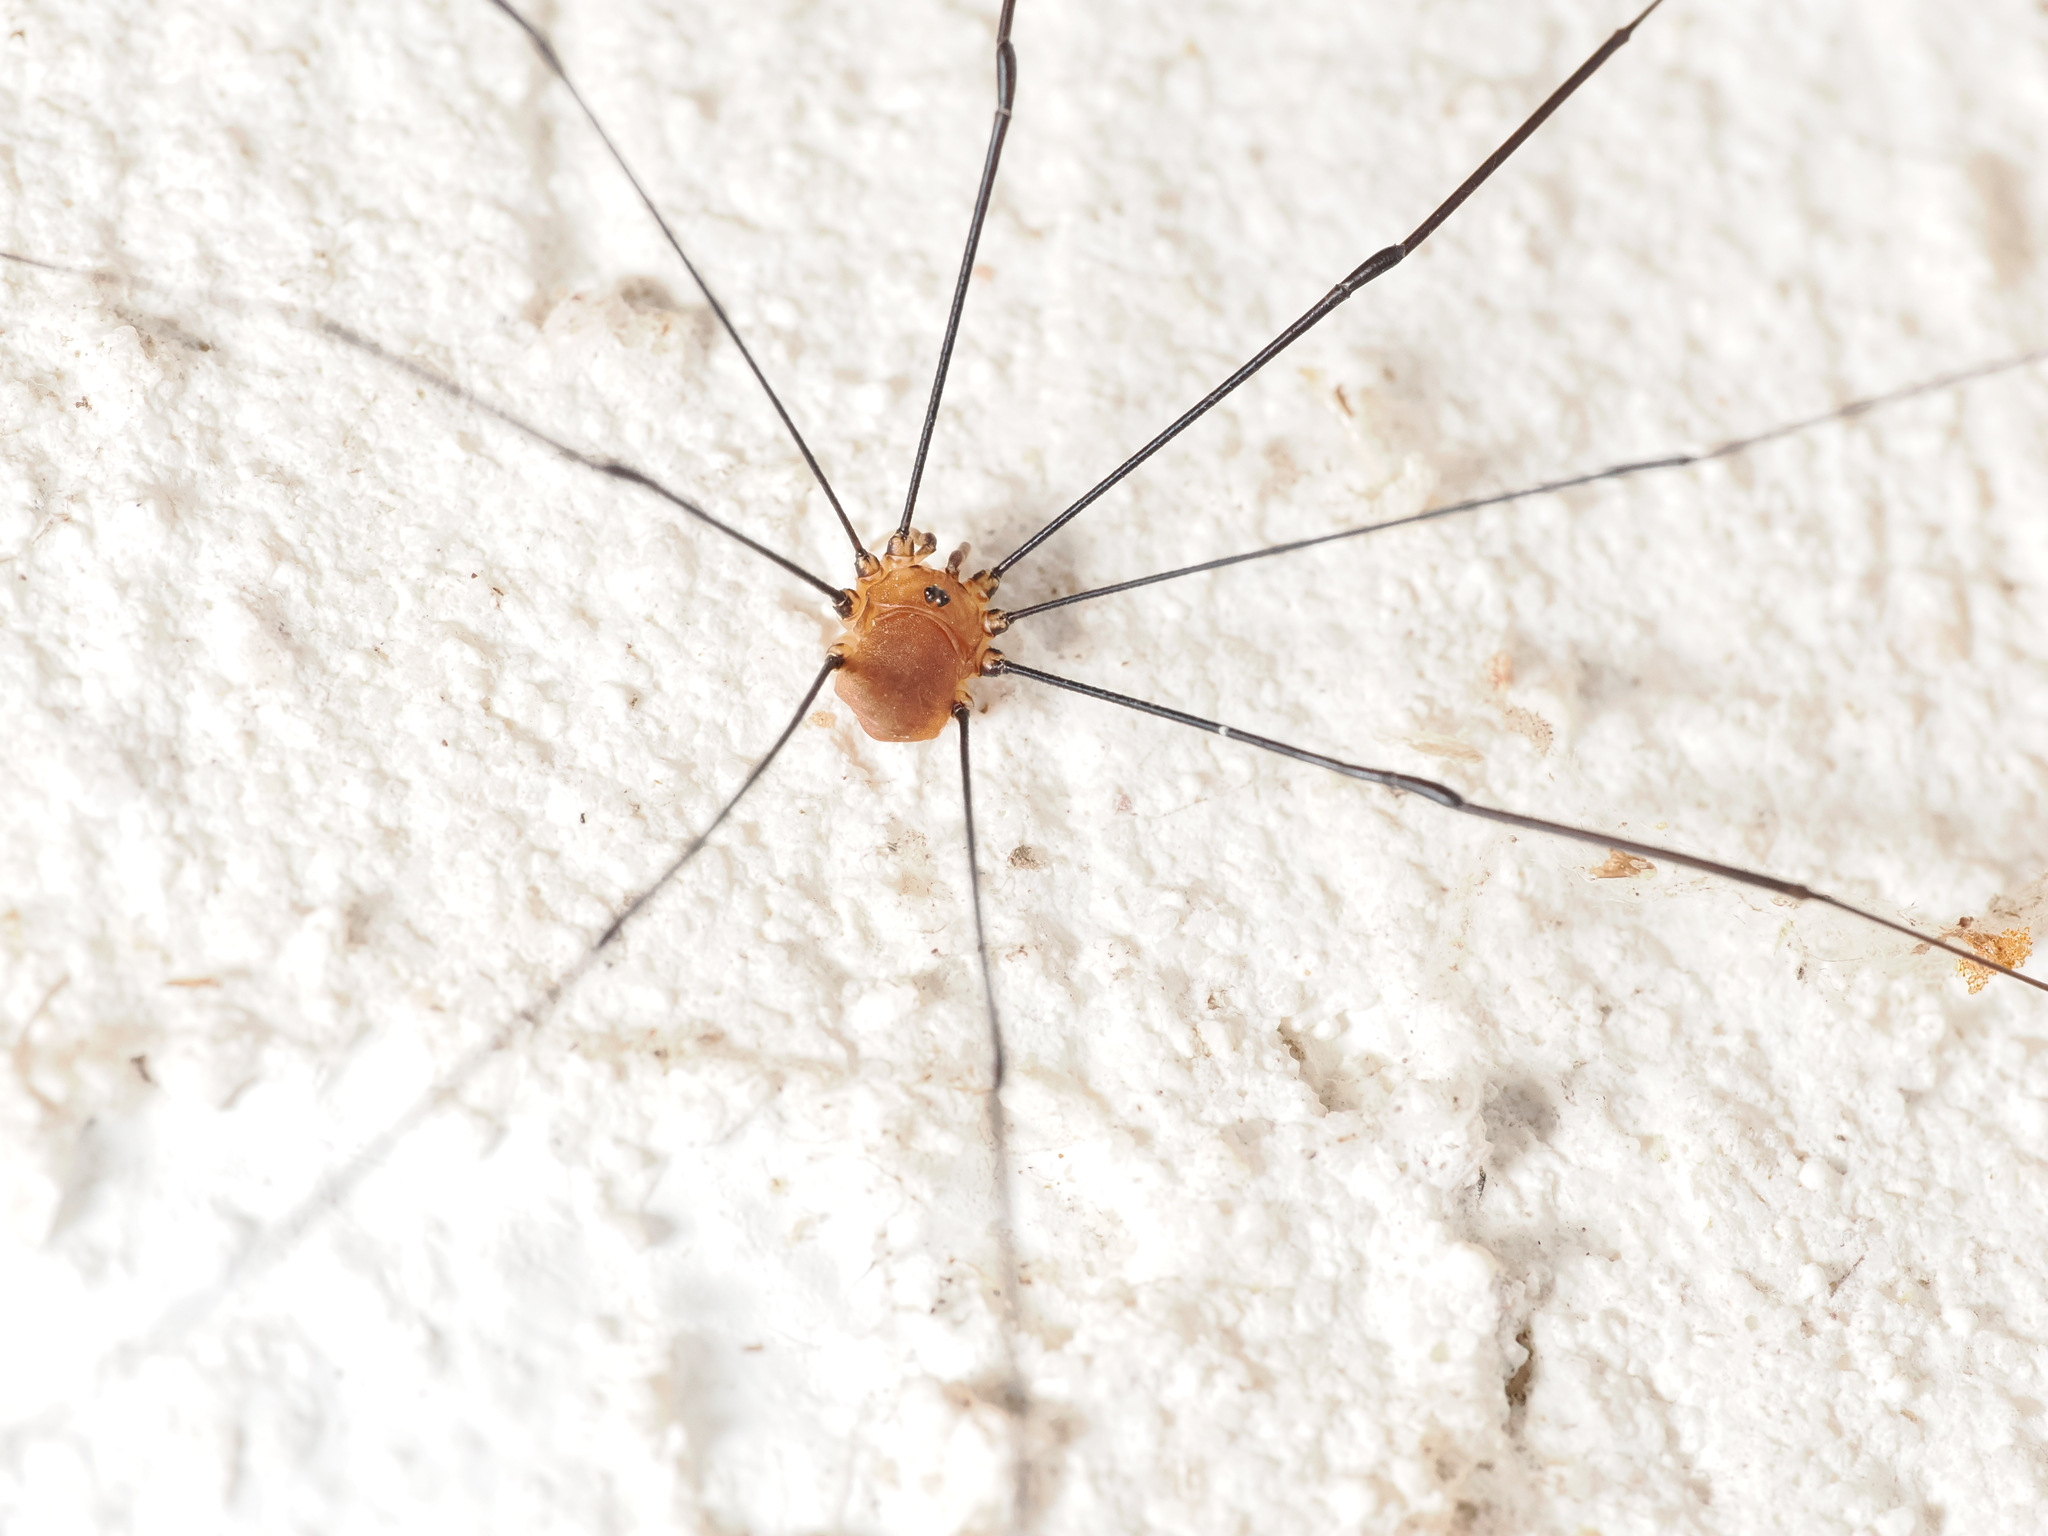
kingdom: Animalia
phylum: Arthropoda
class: Arachnida
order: Opiliones
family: Sclerosomatidae
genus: Leiobunum
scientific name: Leiobunum rotundum
